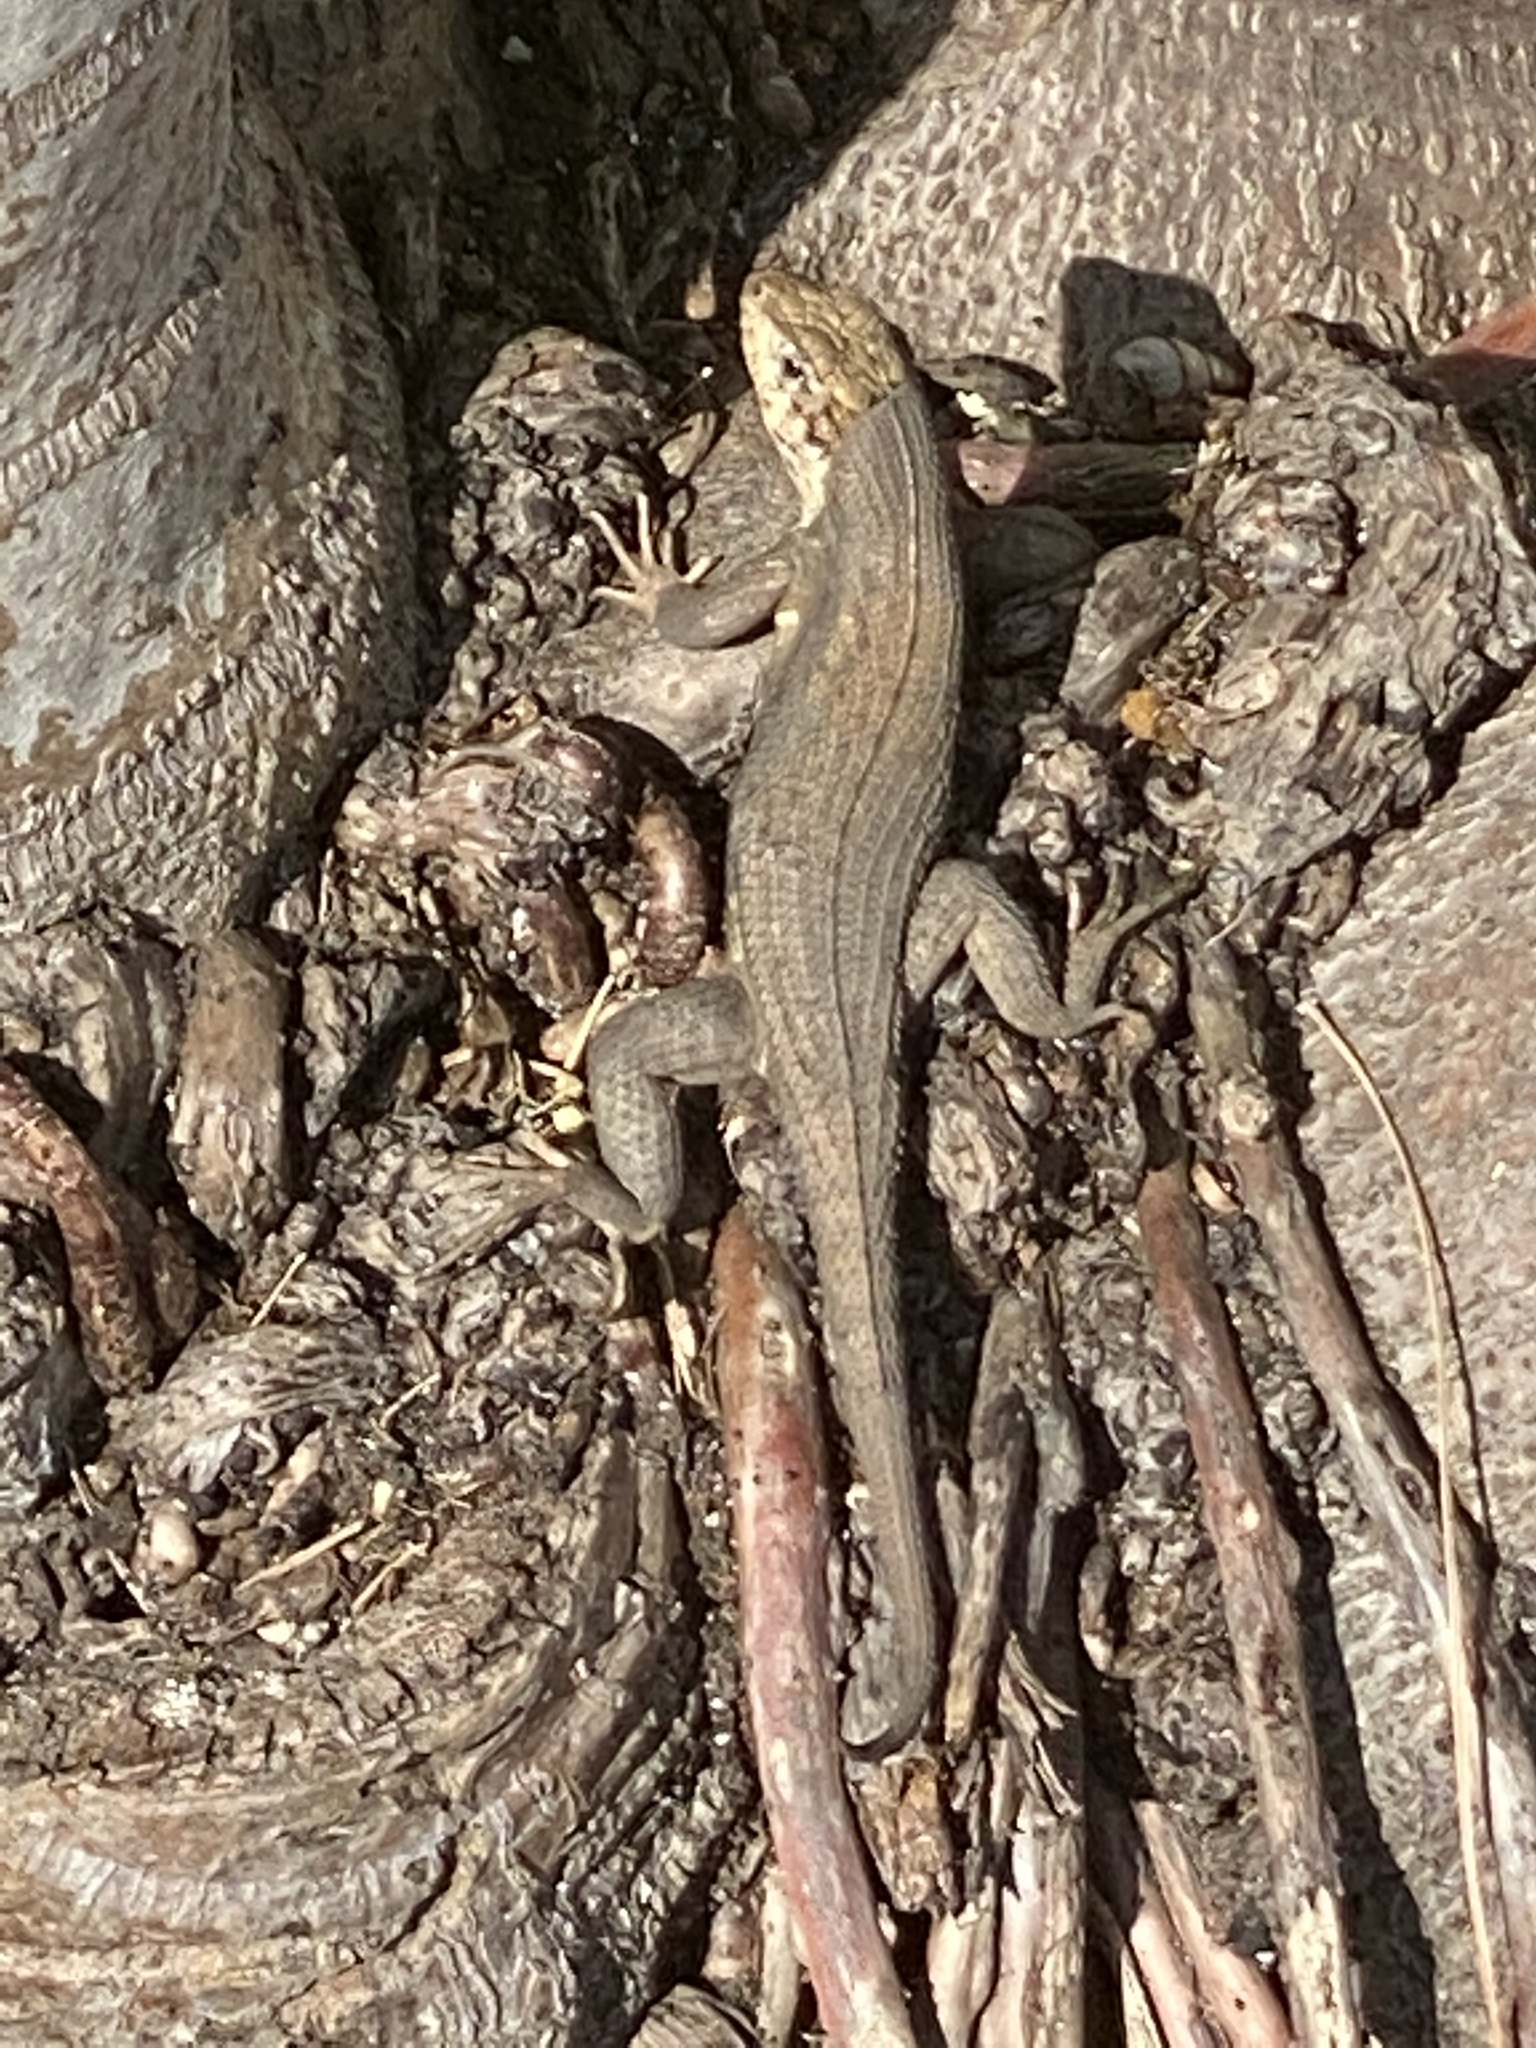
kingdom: Animalia
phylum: Chordata
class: Squamata
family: Leiocephalidae
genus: Leiocephalus
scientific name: Leiocephalus carinatus
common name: Northern curly-tailed lizard
